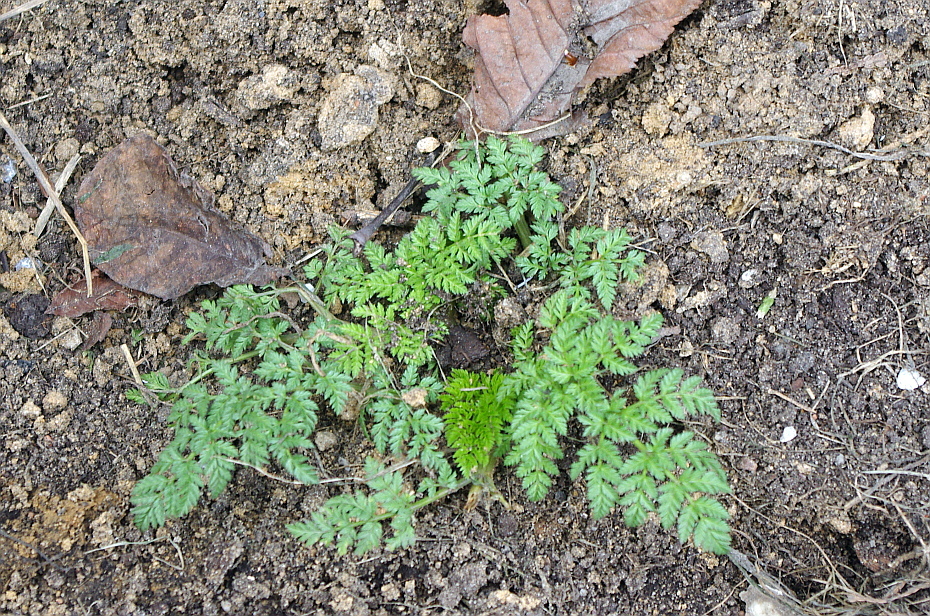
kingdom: Plantae
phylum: Tracheophyta
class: Magnoliopsida
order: Apiales
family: Apiaceae
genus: Anthriscus
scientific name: Anthriscus sylvestris
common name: Cow parsley
